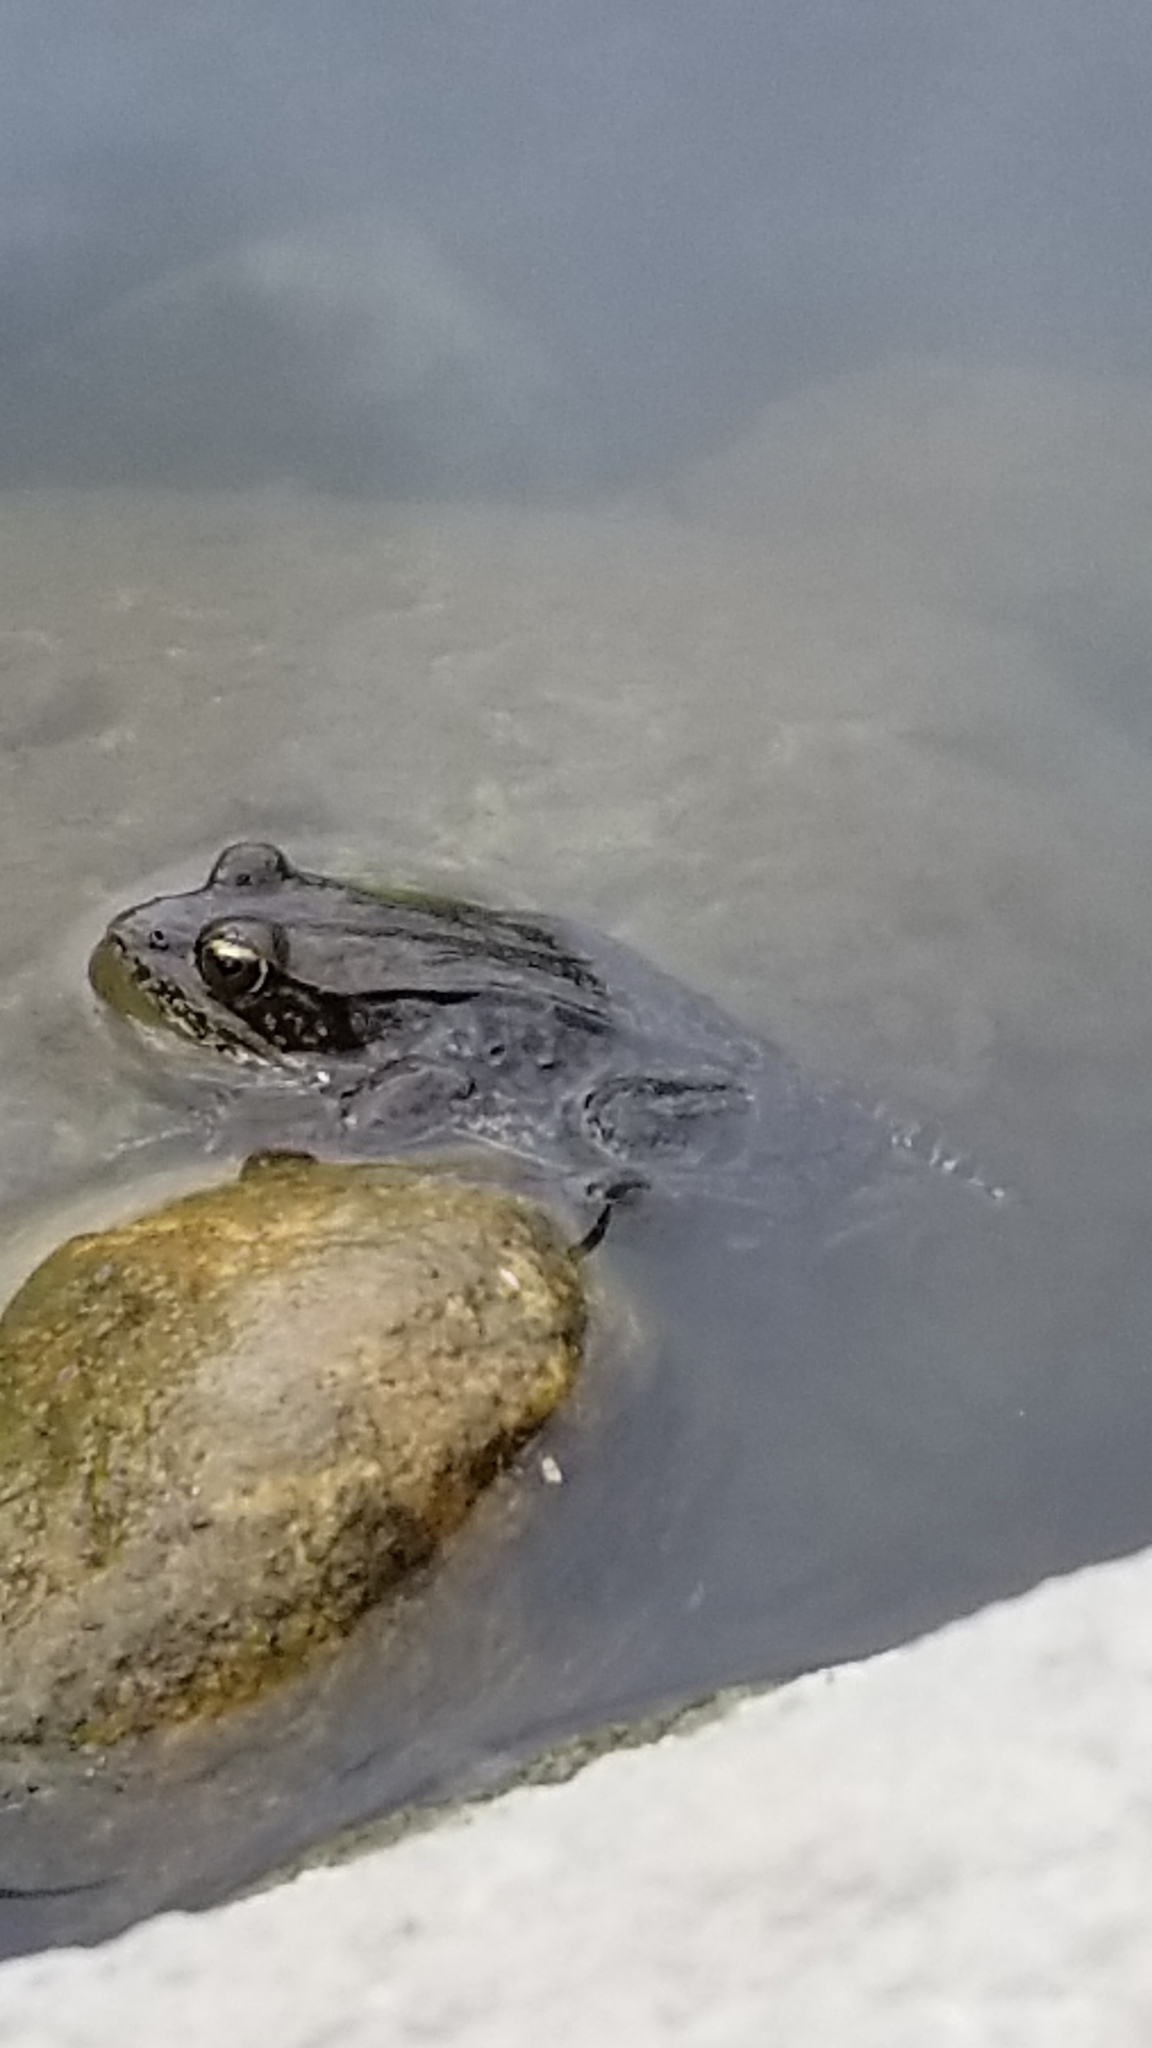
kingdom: Animalia
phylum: Chordata
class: Amphibia
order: Anura
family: Ranidae
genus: Lithobates
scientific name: Lithobates clamitans
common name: Green frog
